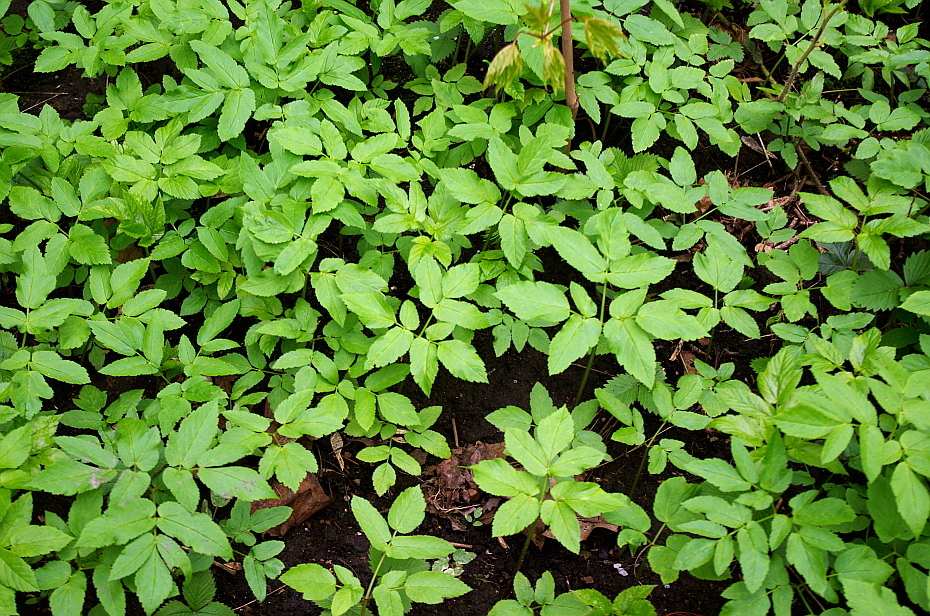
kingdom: Plantae
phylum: Tracheophyta
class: Magnoliopsida
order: Apiales
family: Apiaceae
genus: Aegopodium
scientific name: Aegopodium podagraria
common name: Ground-elder
